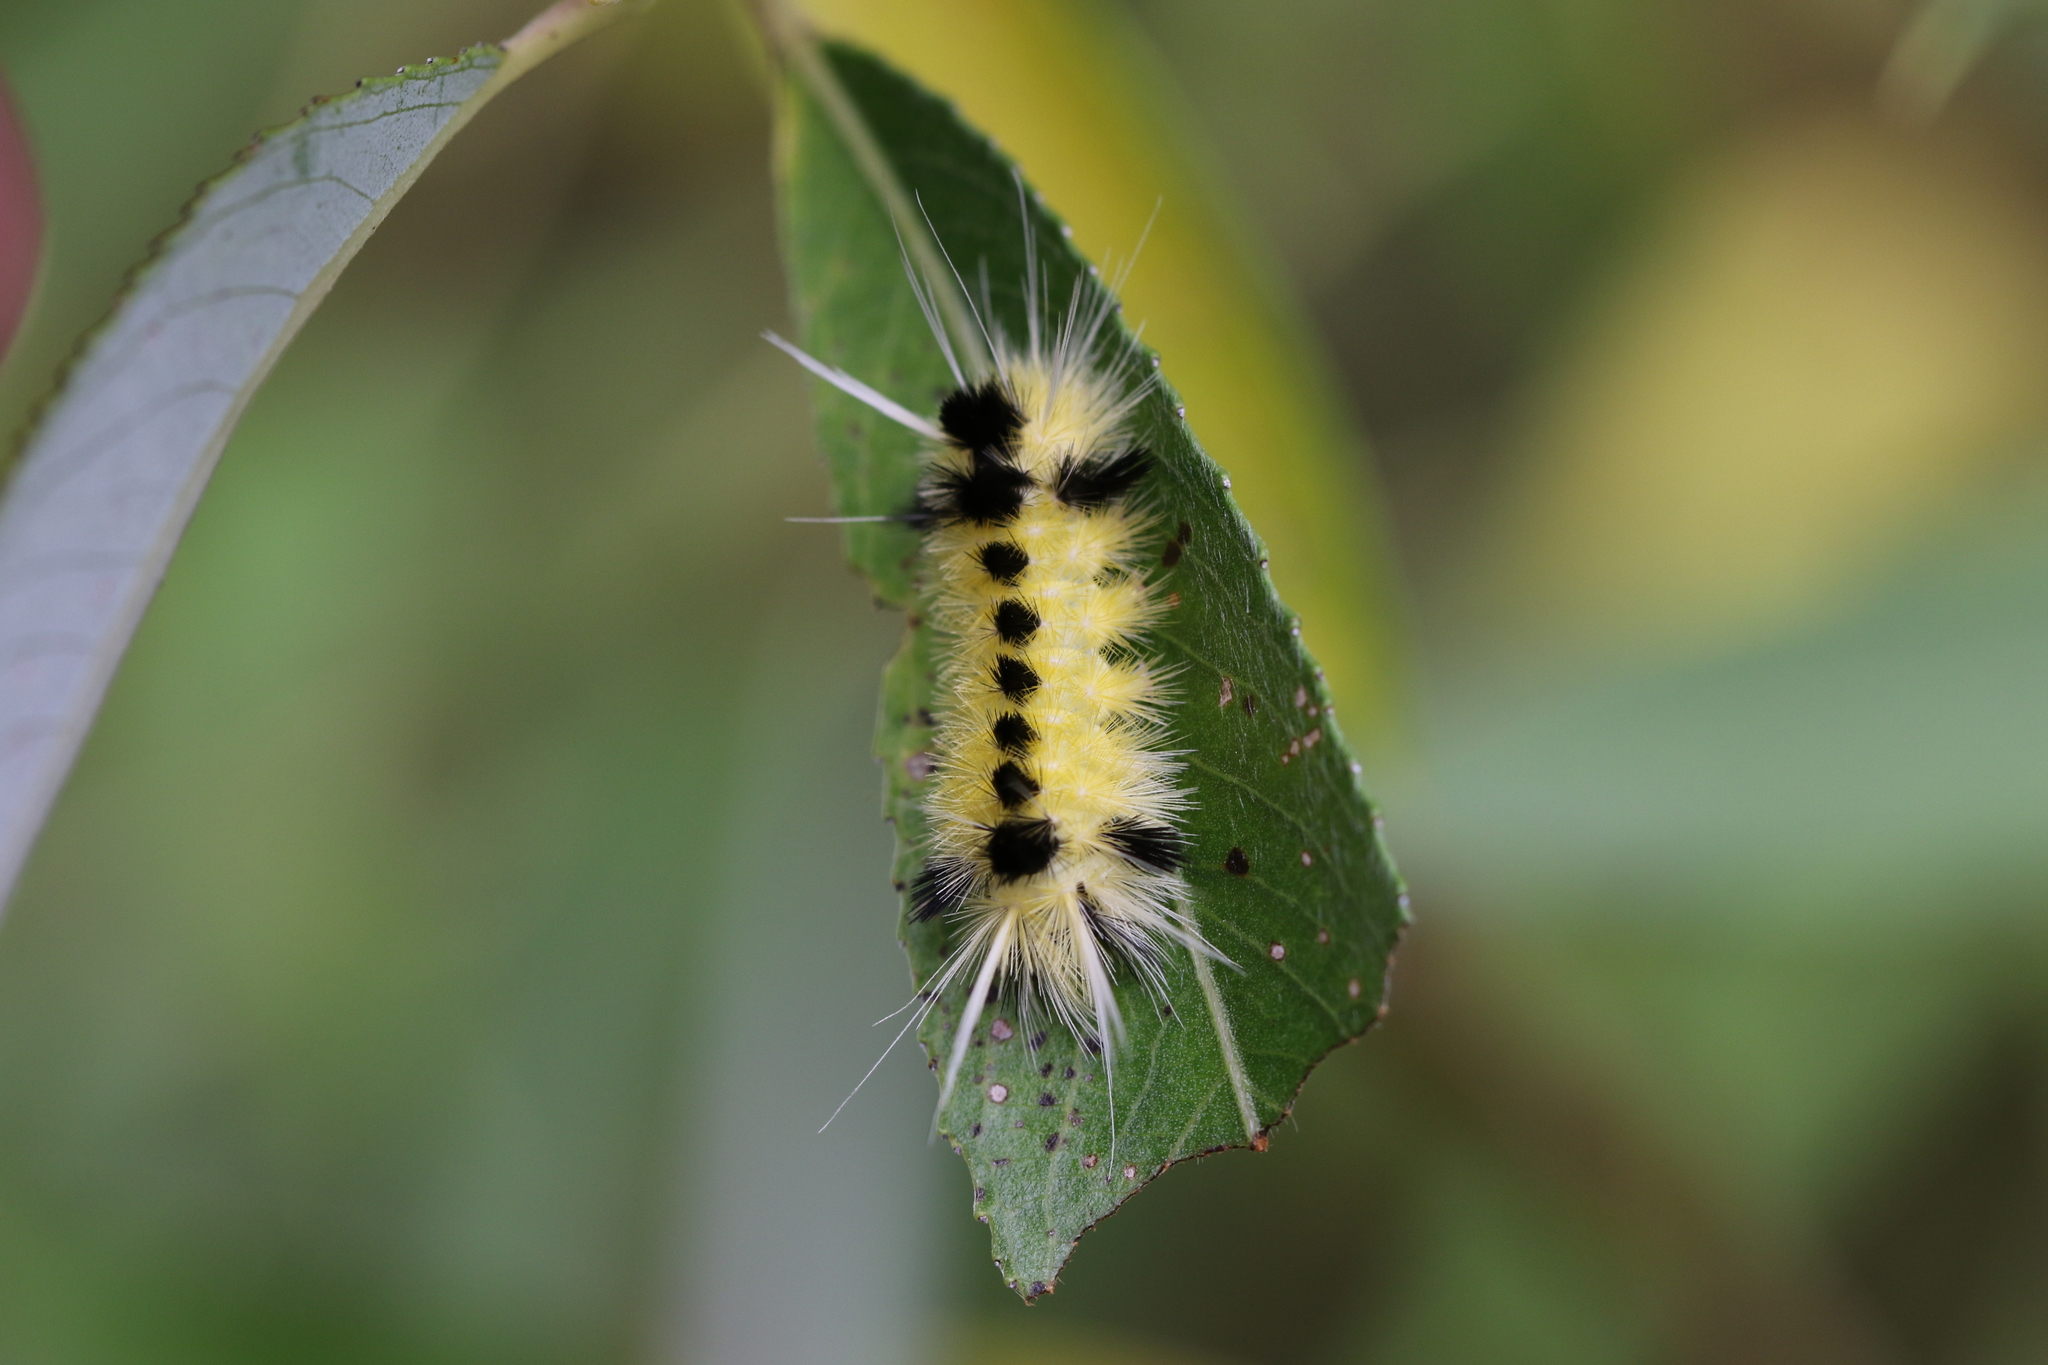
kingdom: Animalia
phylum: Arthropoda
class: Insecta
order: Lepidoptera
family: Erebidae
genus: Lophocampa
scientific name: Lophocampa maculata
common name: Spotted tussock moth
